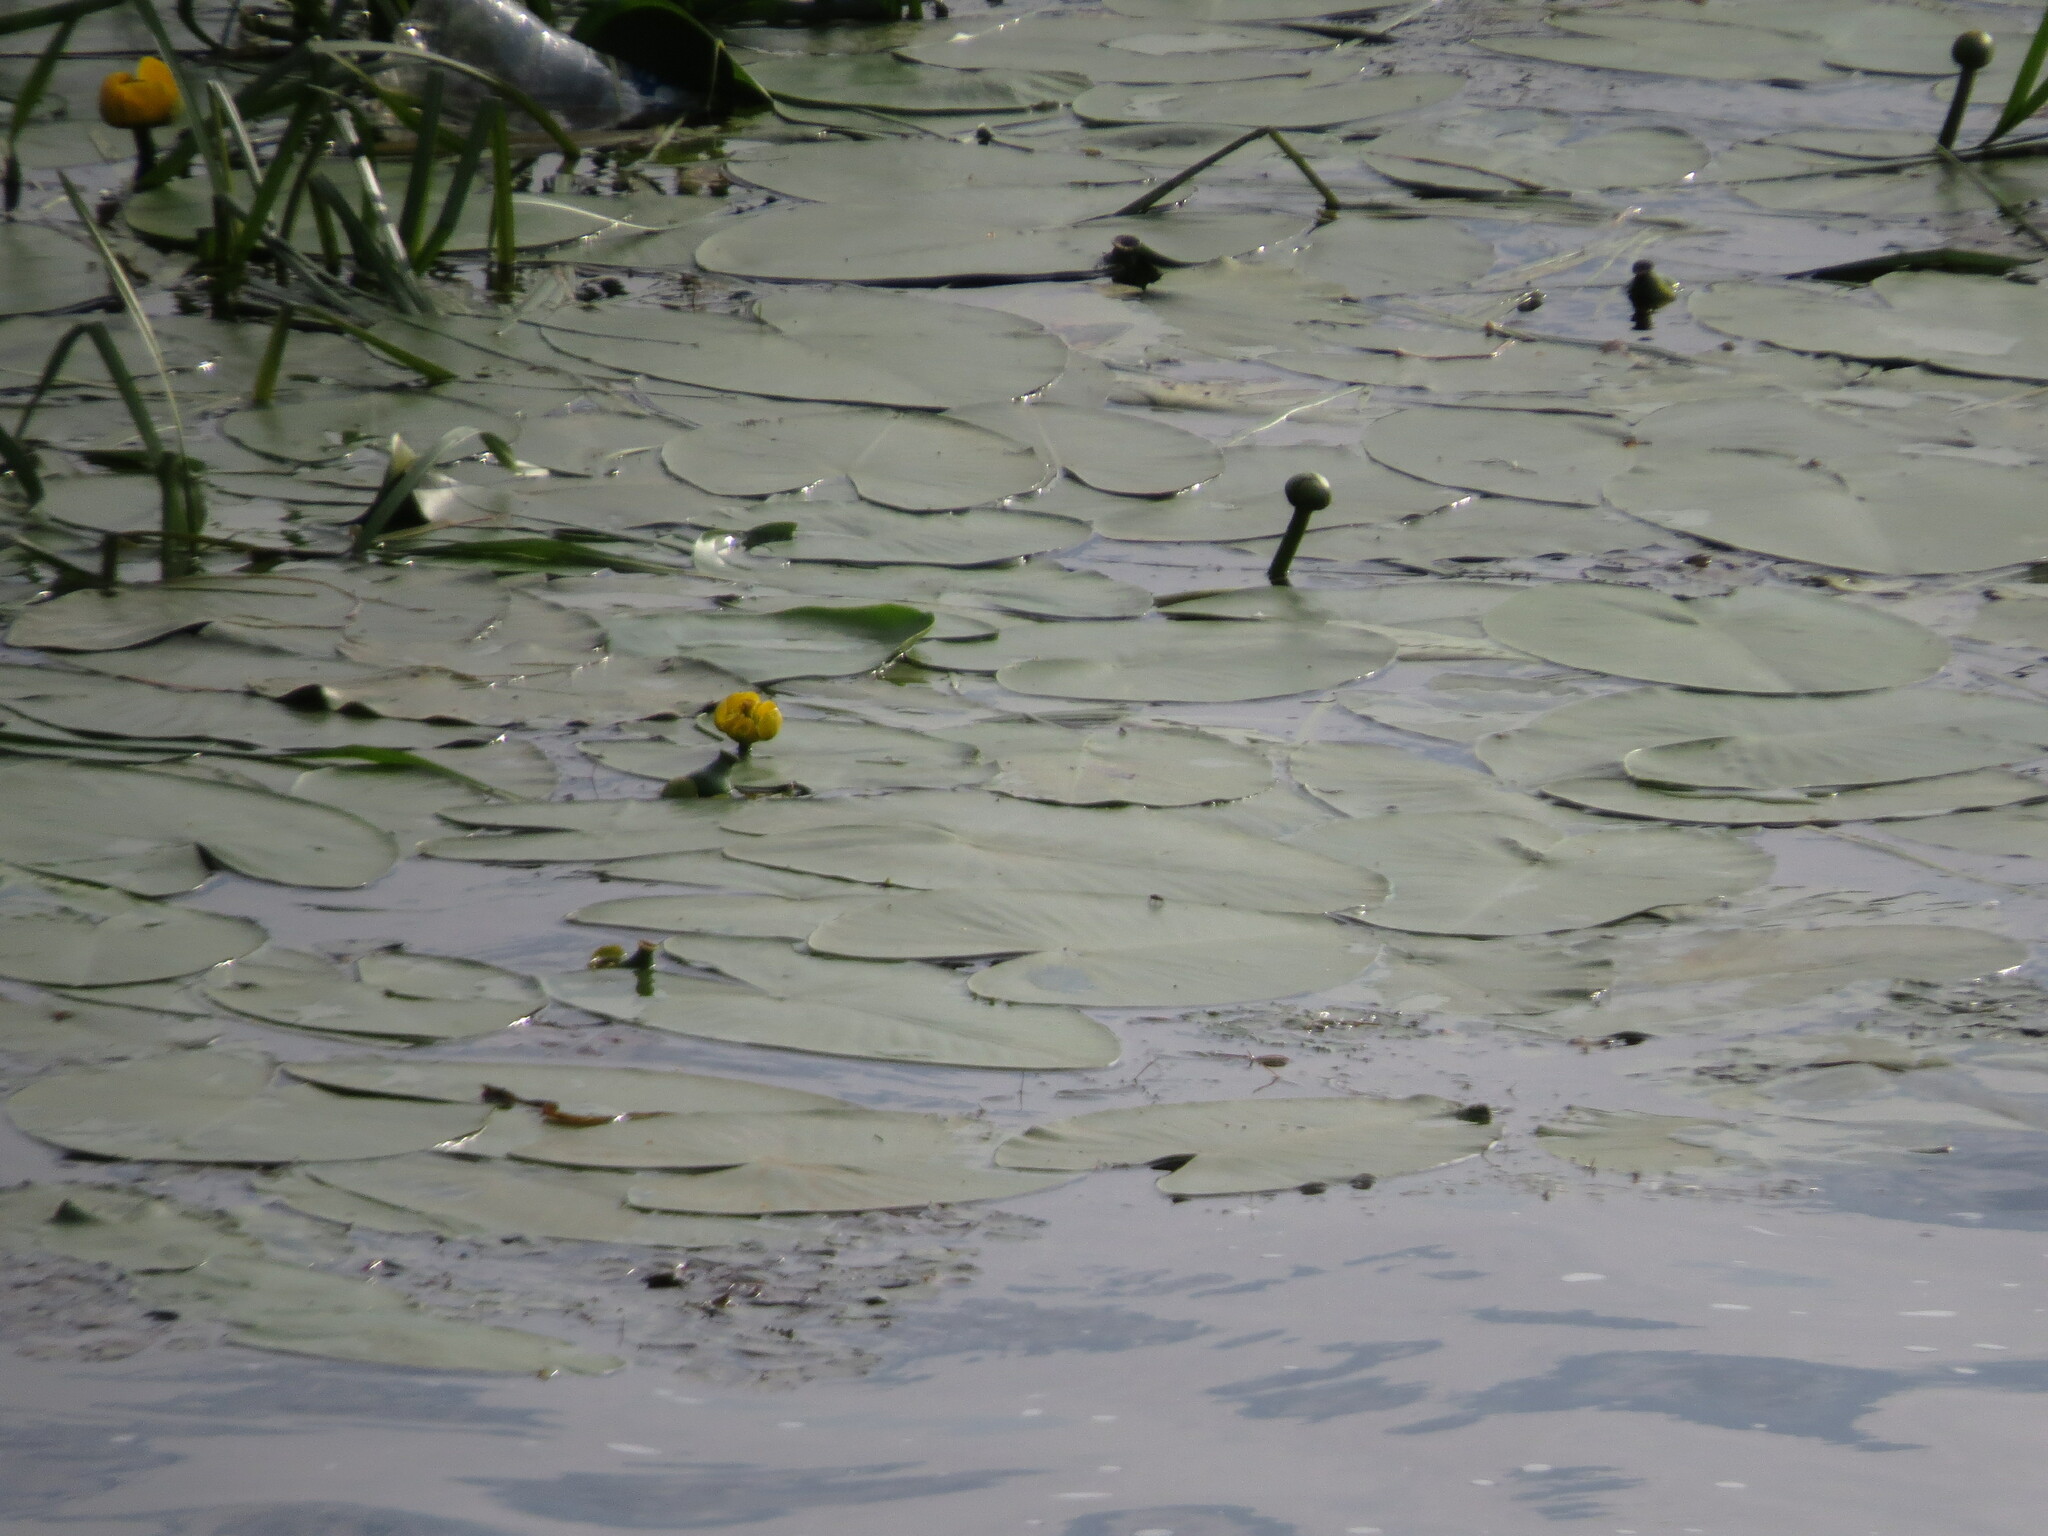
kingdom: Plantae
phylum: Tracheophyta
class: Magnoliopsida
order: Nymphaeales
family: Nymphaeaceae
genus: Nuphar
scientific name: Nuphar lutea
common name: Yellow water-lily
